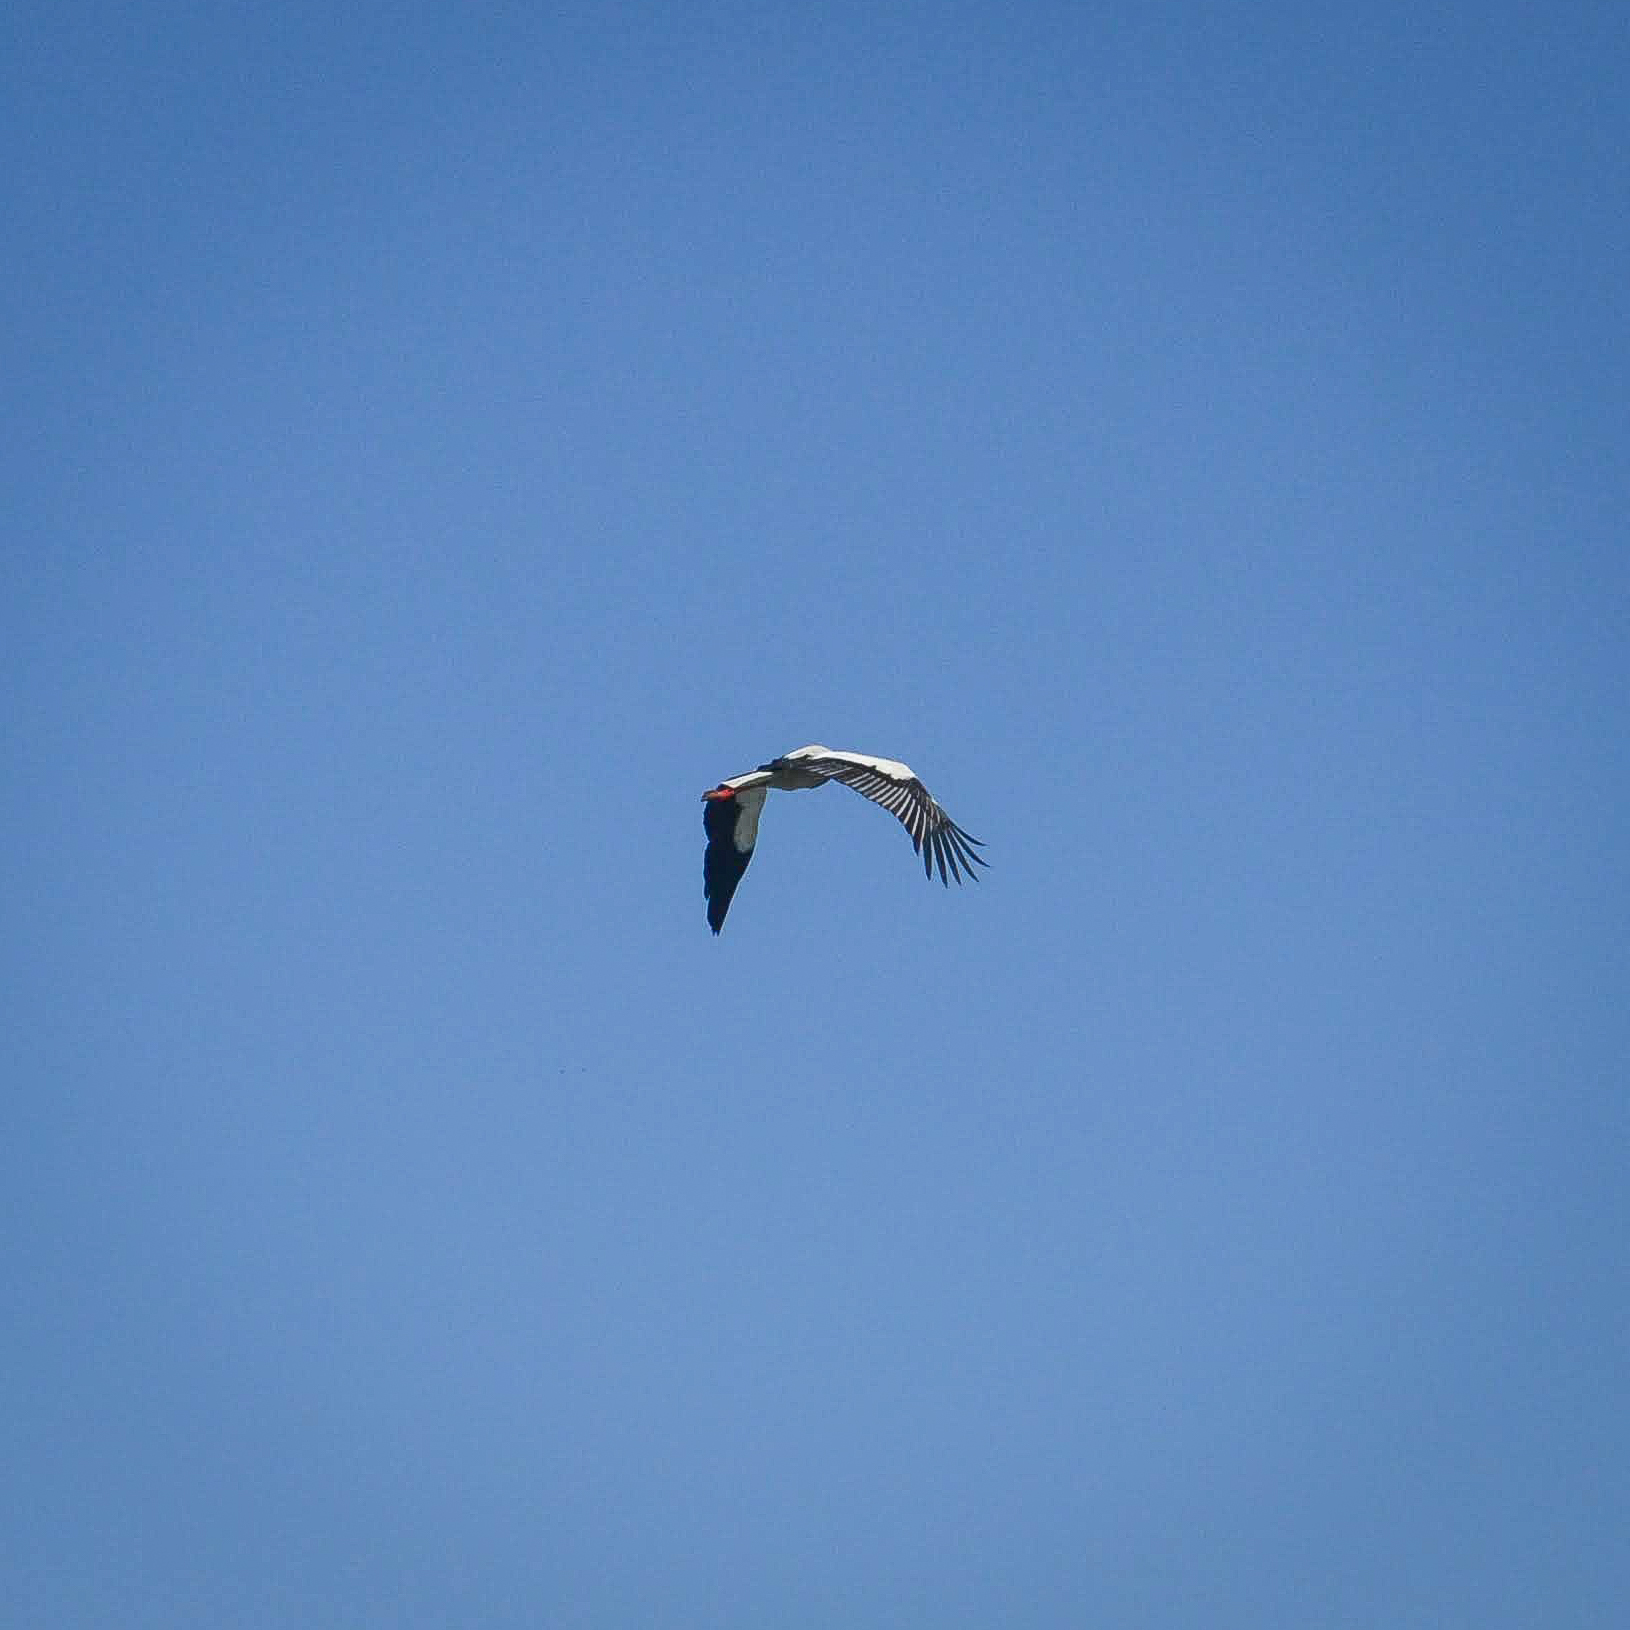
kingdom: Animalia
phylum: Chordata
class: Aves
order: Ciconiiformes
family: Ciconiidae
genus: Ciconia
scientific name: Ciconia ciconia
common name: White stork
